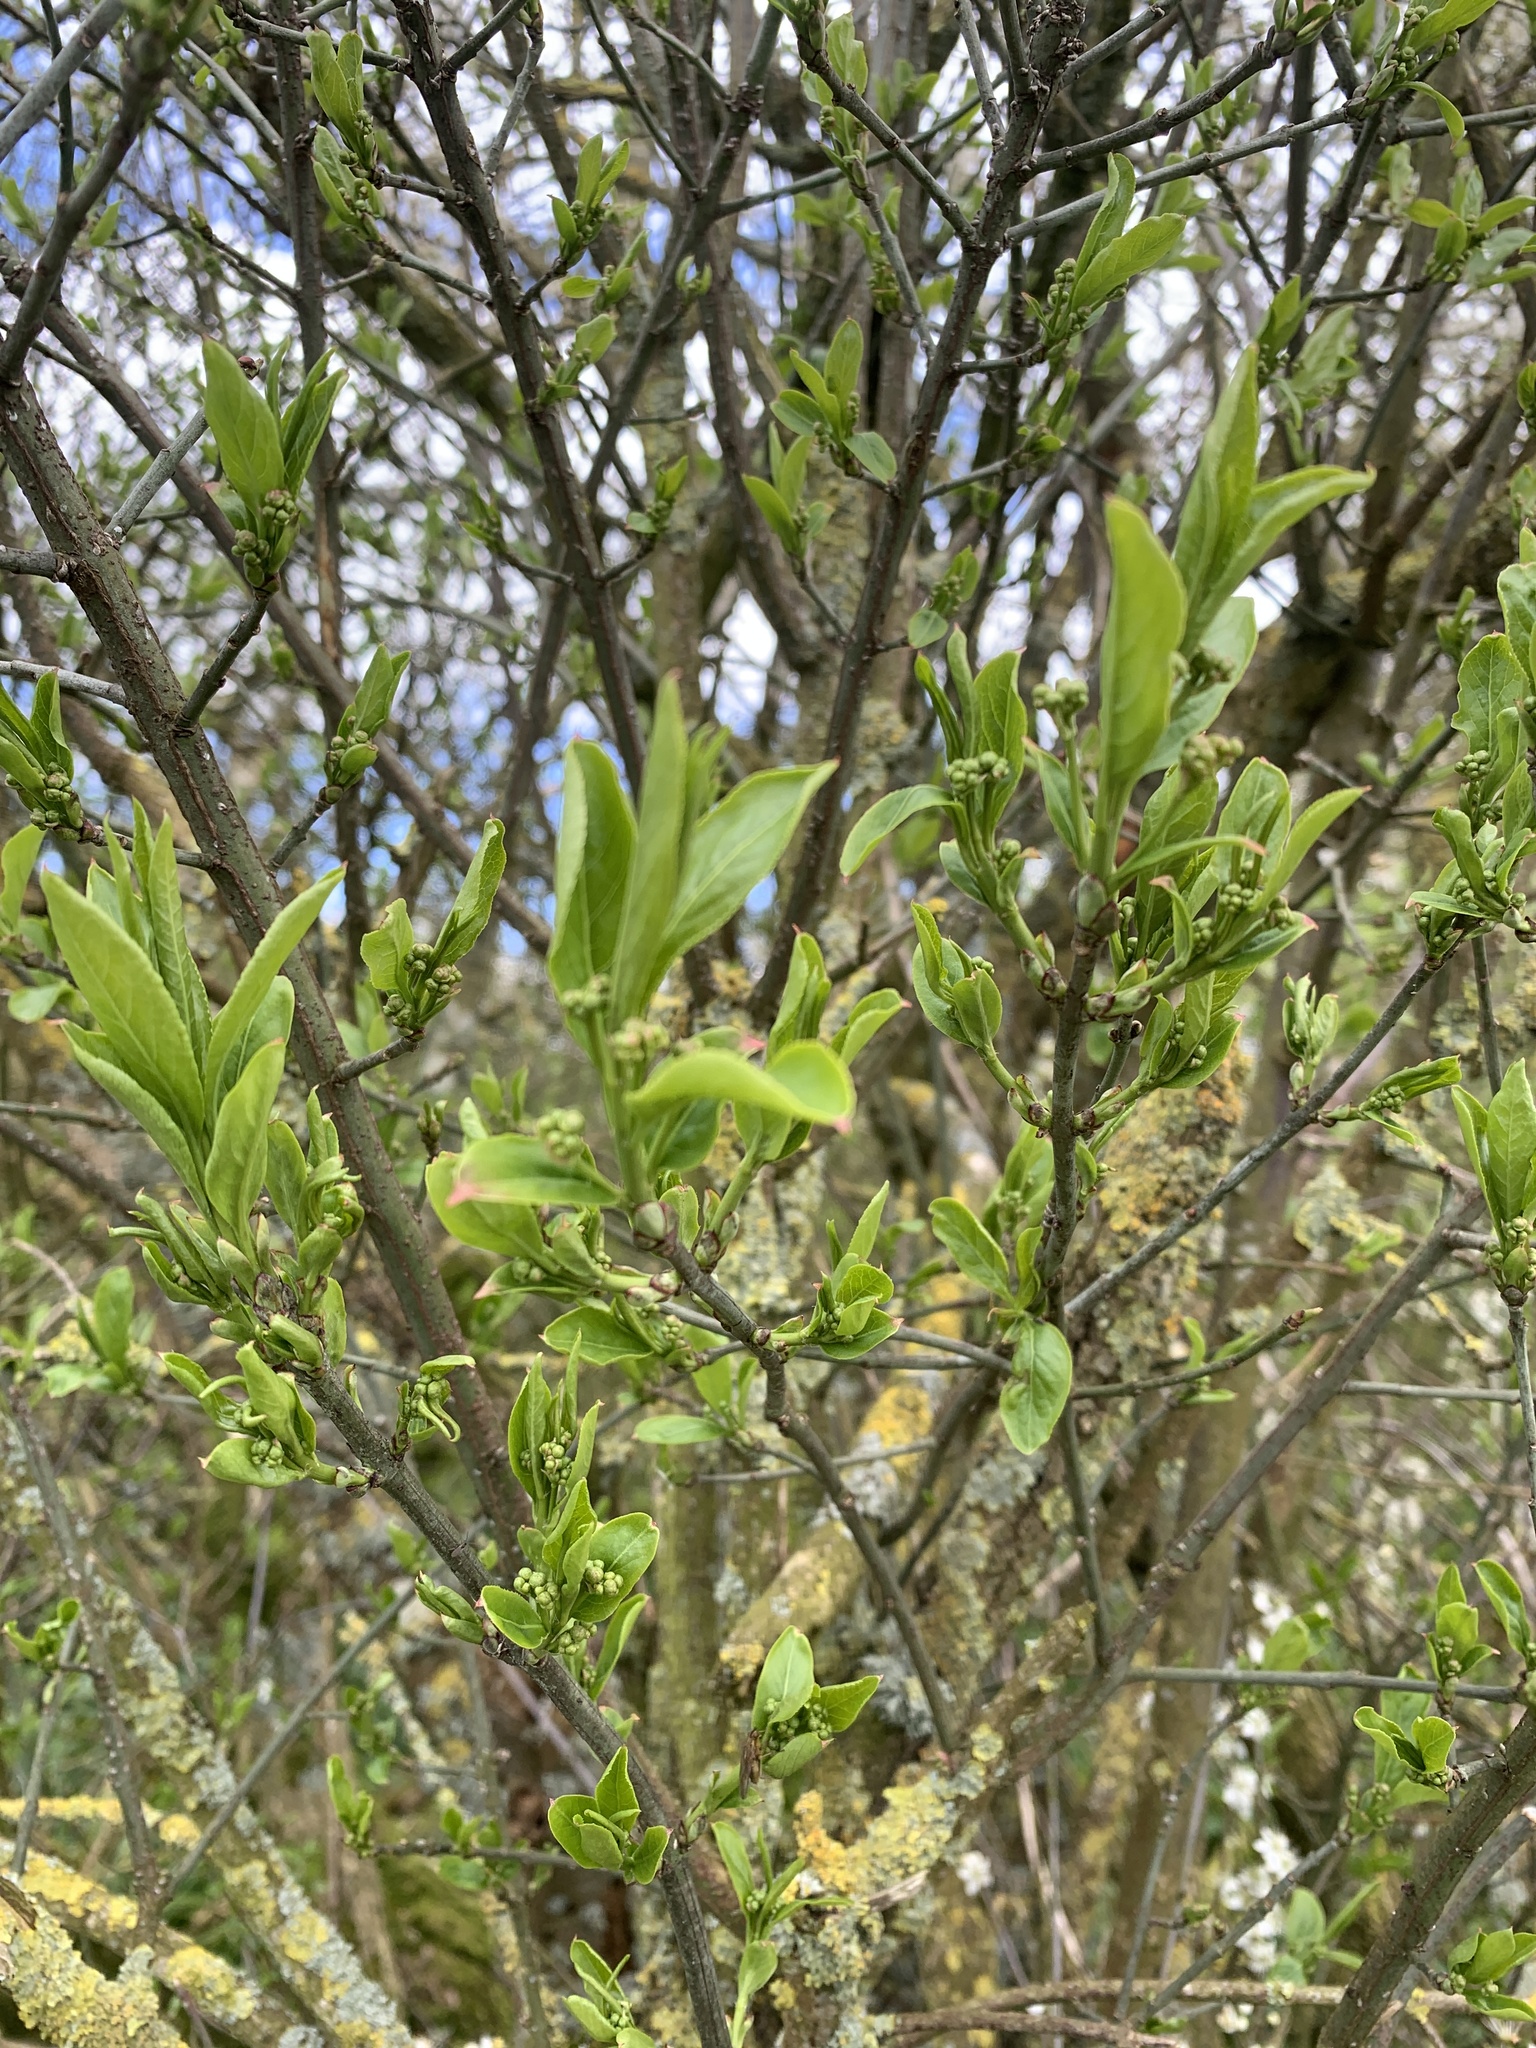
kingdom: Plantae
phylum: Tracheophyta
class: Magnoliopsida
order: Rosales
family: Rosaceae
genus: Prunus
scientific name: Prunus cerasifera
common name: Cherry plum
